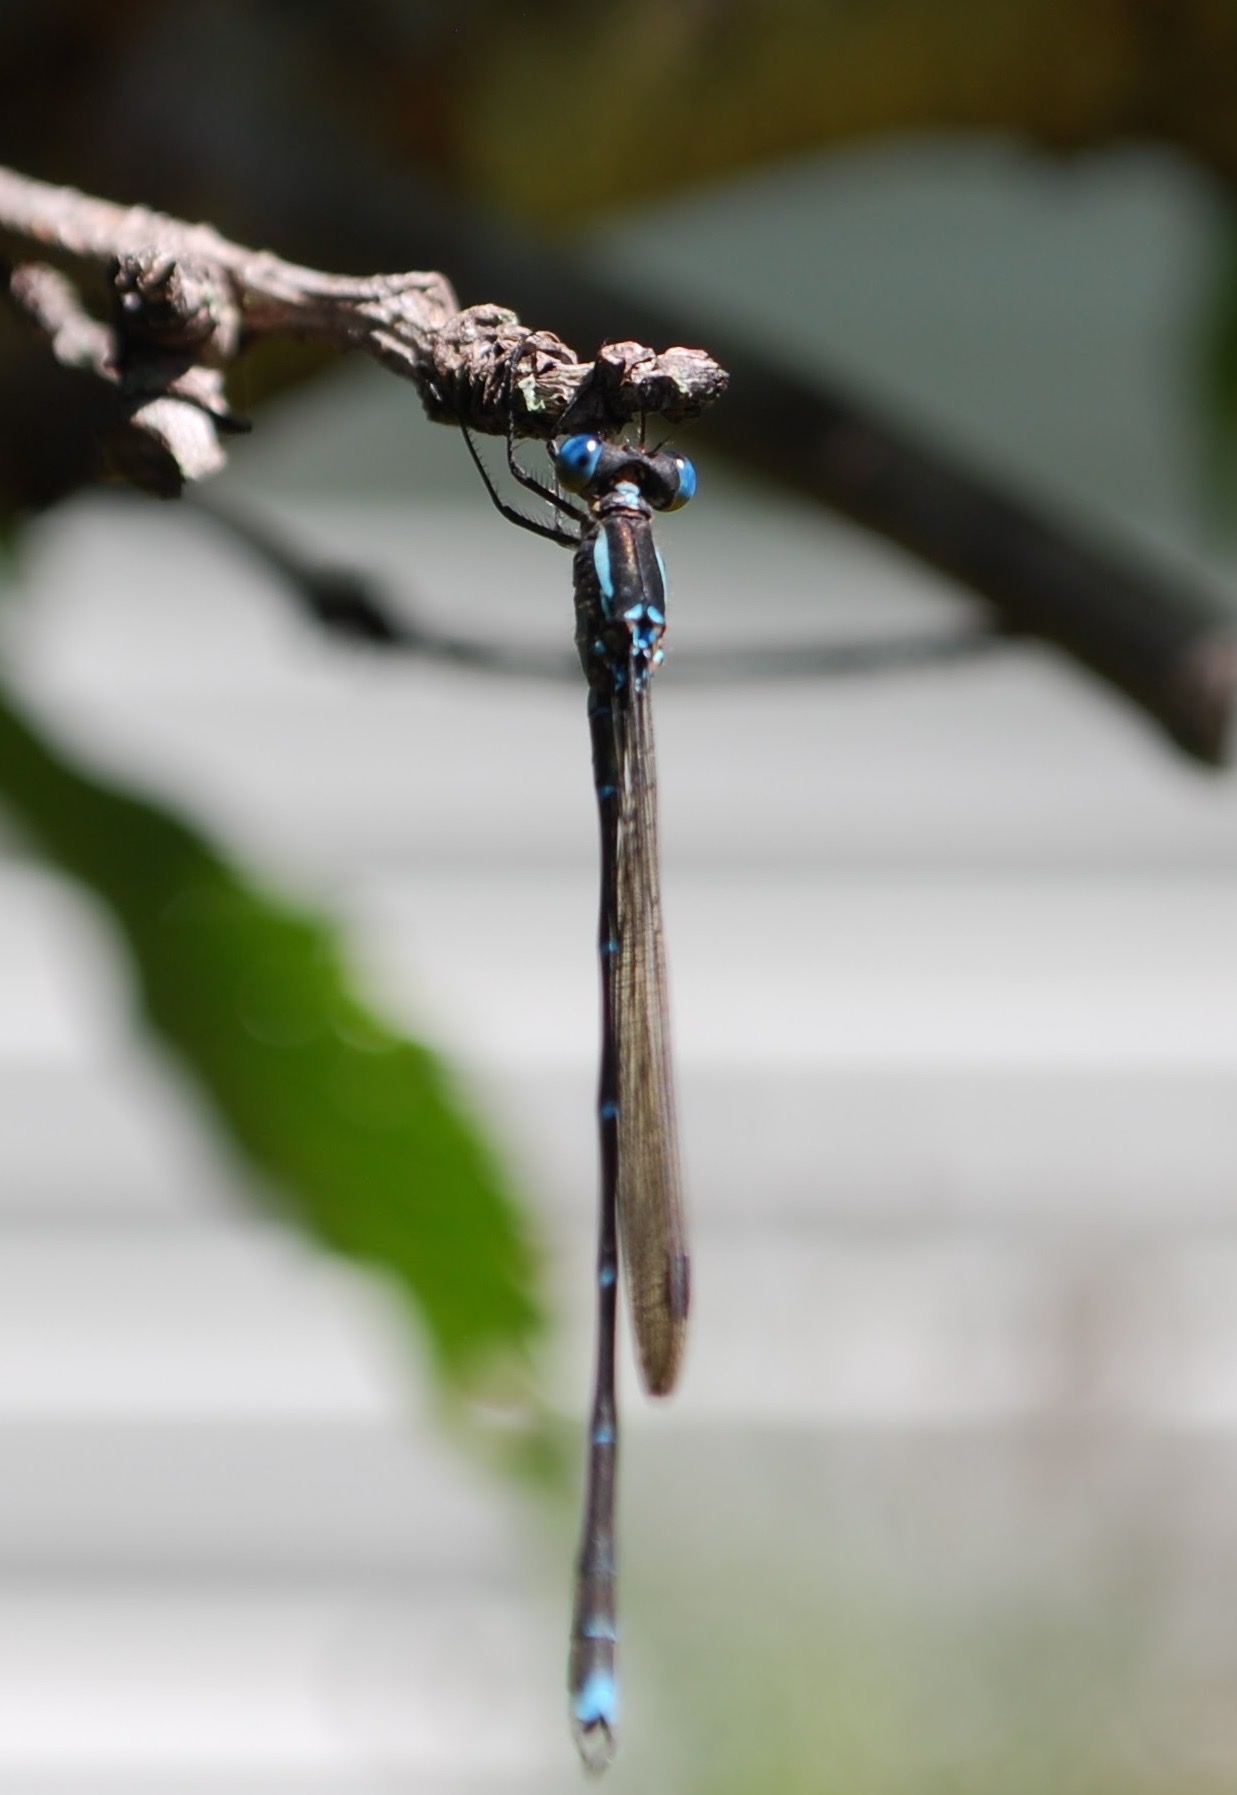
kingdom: Animalia
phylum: Arthropoda
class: Insecta
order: Odonata
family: Lestidae
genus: Austrolestes
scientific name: Austrolestes colensonis
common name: Blue damselfly
